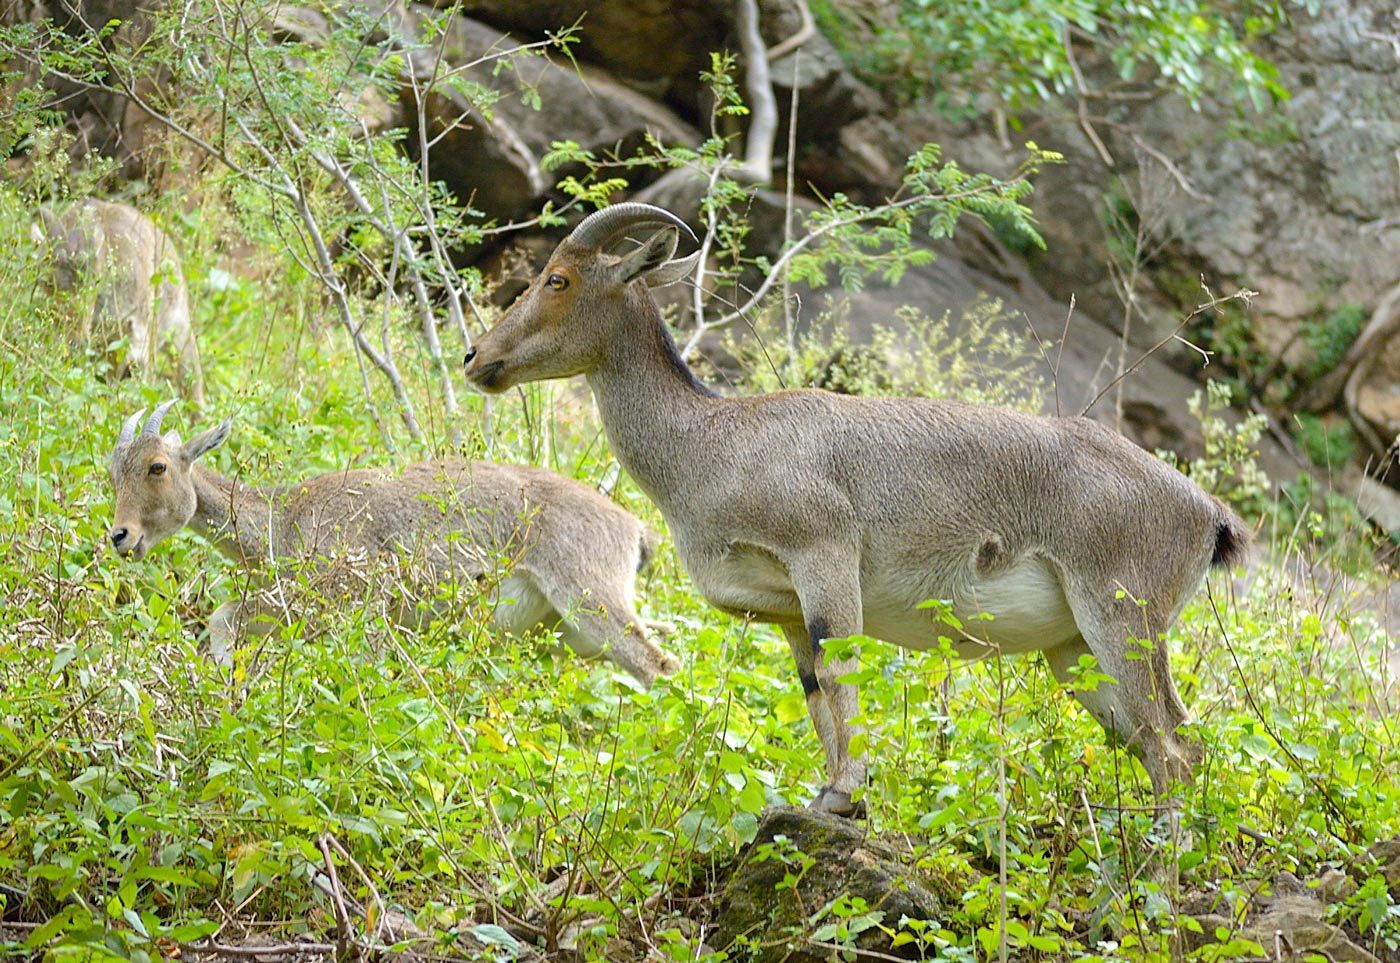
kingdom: Animalia
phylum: Chordata
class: Mammalia
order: Artiodactyla
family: Bovidae
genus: Hemitragus
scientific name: Hemitragus hylocrius
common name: Nilgiri tahr
